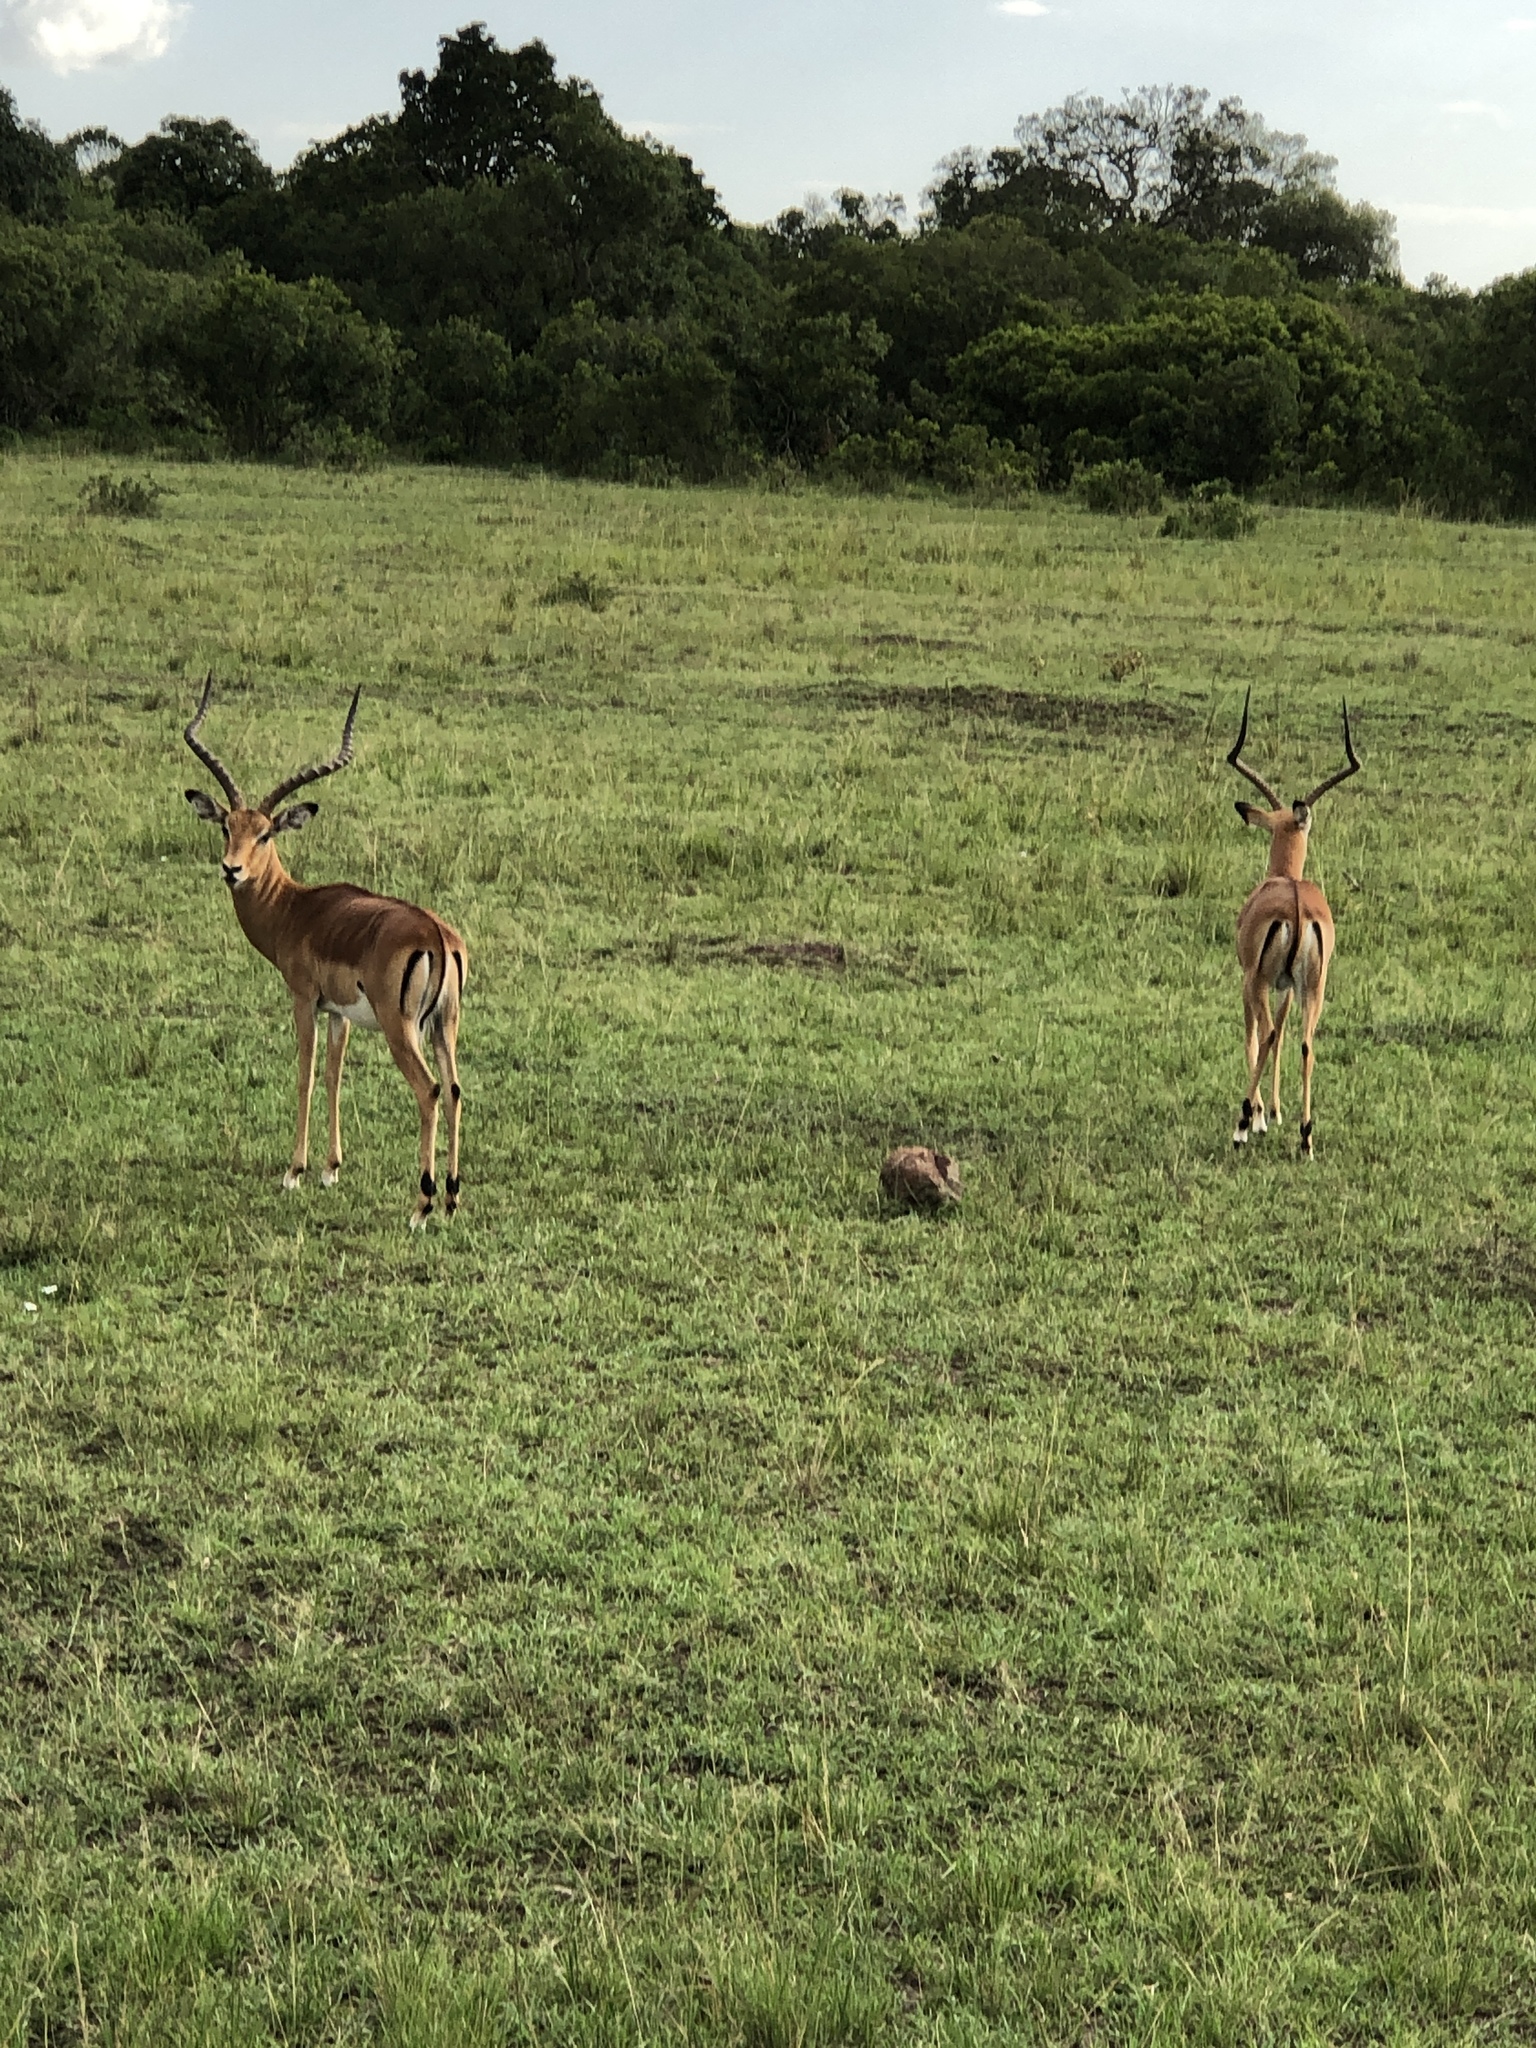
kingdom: Animalia
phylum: Chordata
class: Mammalia
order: Artiodactyla
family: Bovidae
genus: Aepyceros
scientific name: Aepyceros melampus
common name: Impala
